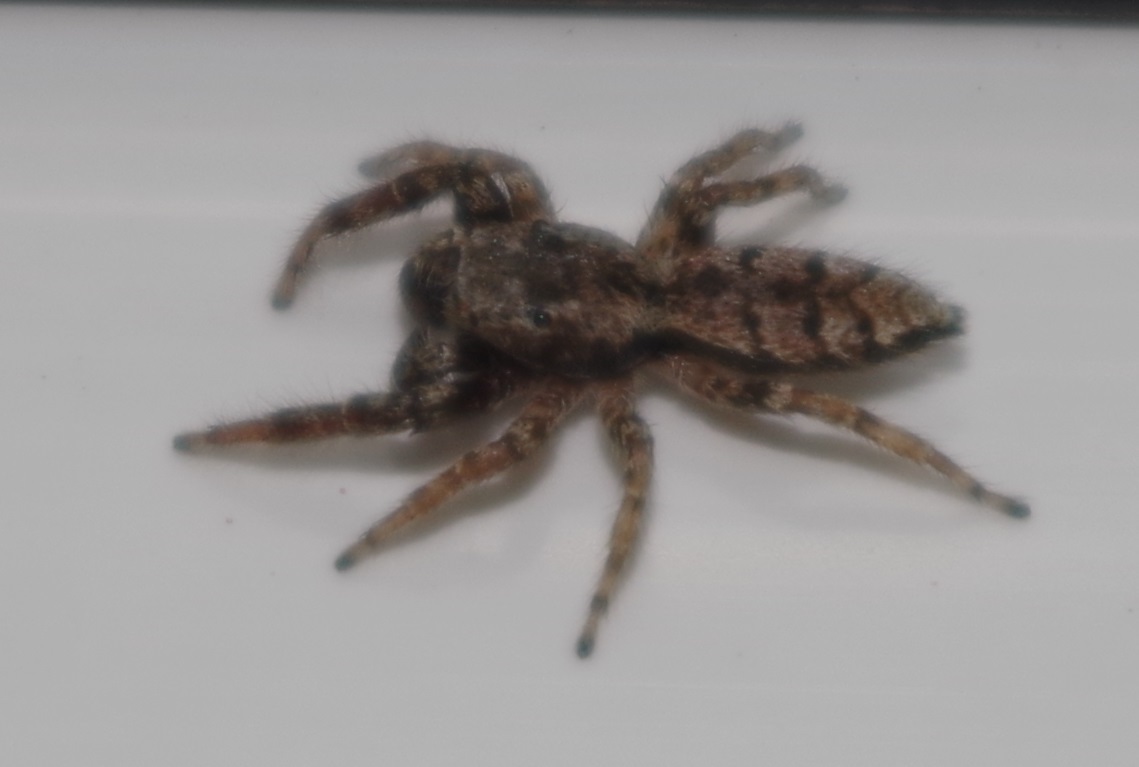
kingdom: Animalia
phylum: Arthropoda
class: Arachnida
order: Araneae
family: Salticidae
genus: Marpissa
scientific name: Marpissa muscosa
